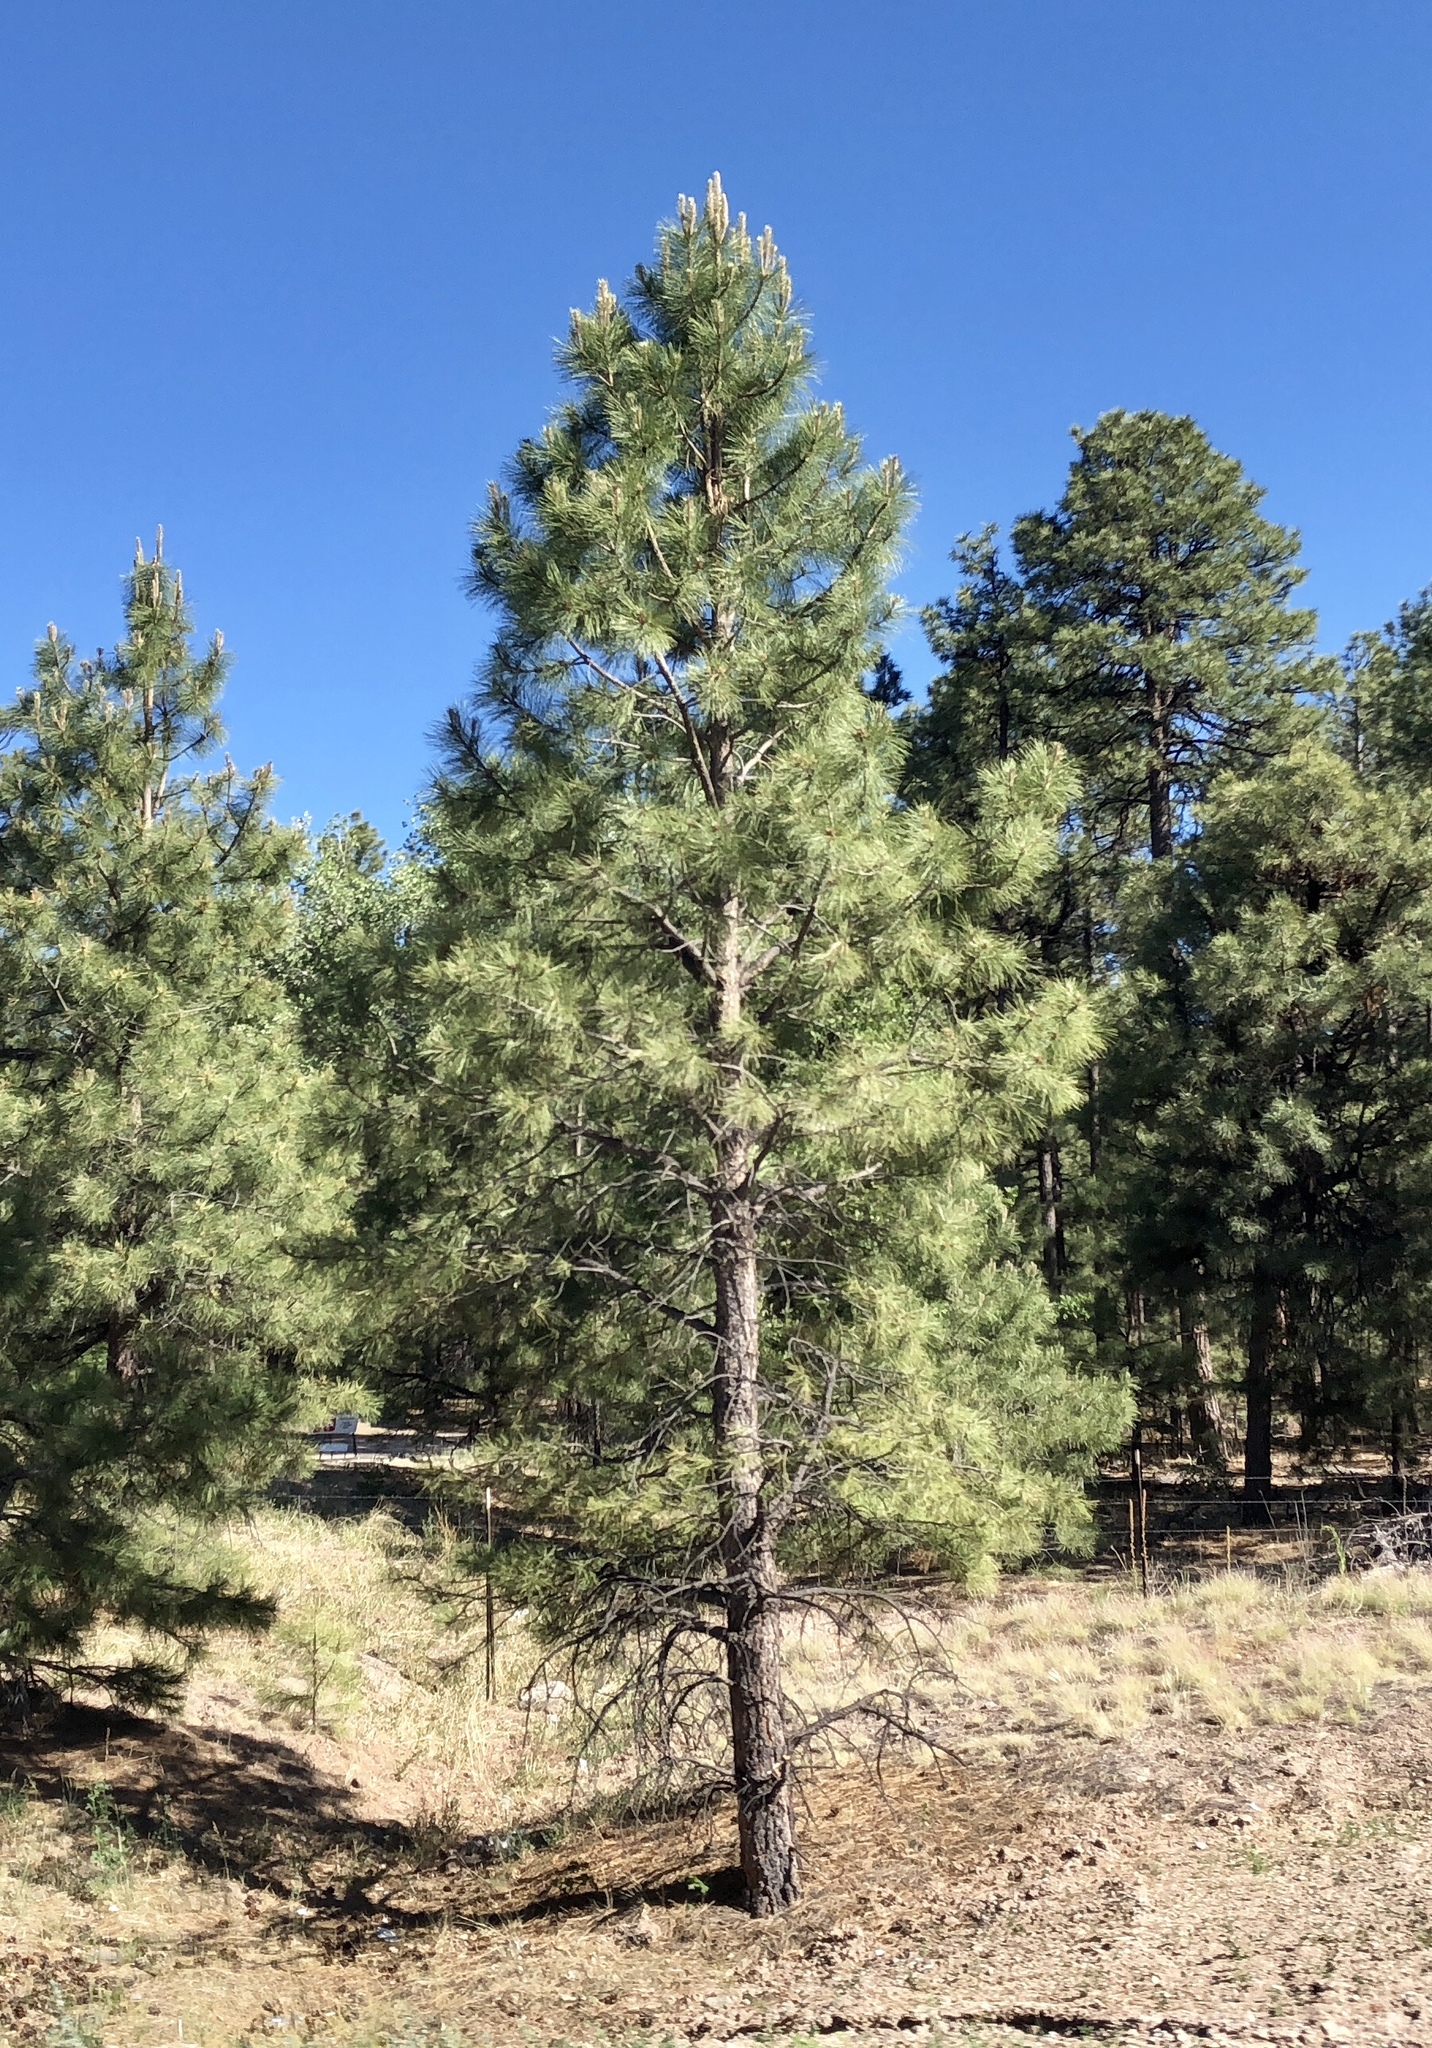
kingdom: Plantae
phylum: Tracheophyta
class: Pinopsida
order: Pinales
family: Pinaceae
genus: Pinus
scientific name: Pinus ponderosa
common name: Western yellow-pine
